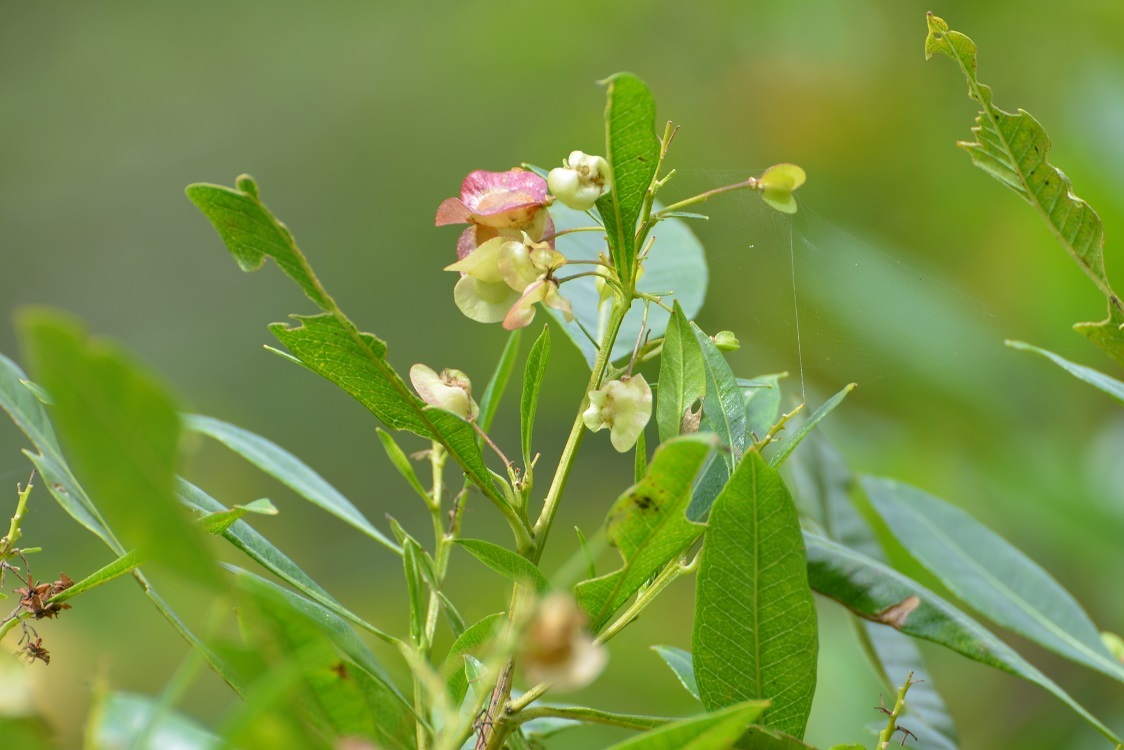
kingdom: Plantae
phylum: Tracheophyta
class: Magnoliopsida
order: Sapindales
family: Sapindaceae
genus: Dodonaea
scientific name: Dodonaea viscosa
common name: Hopbush
